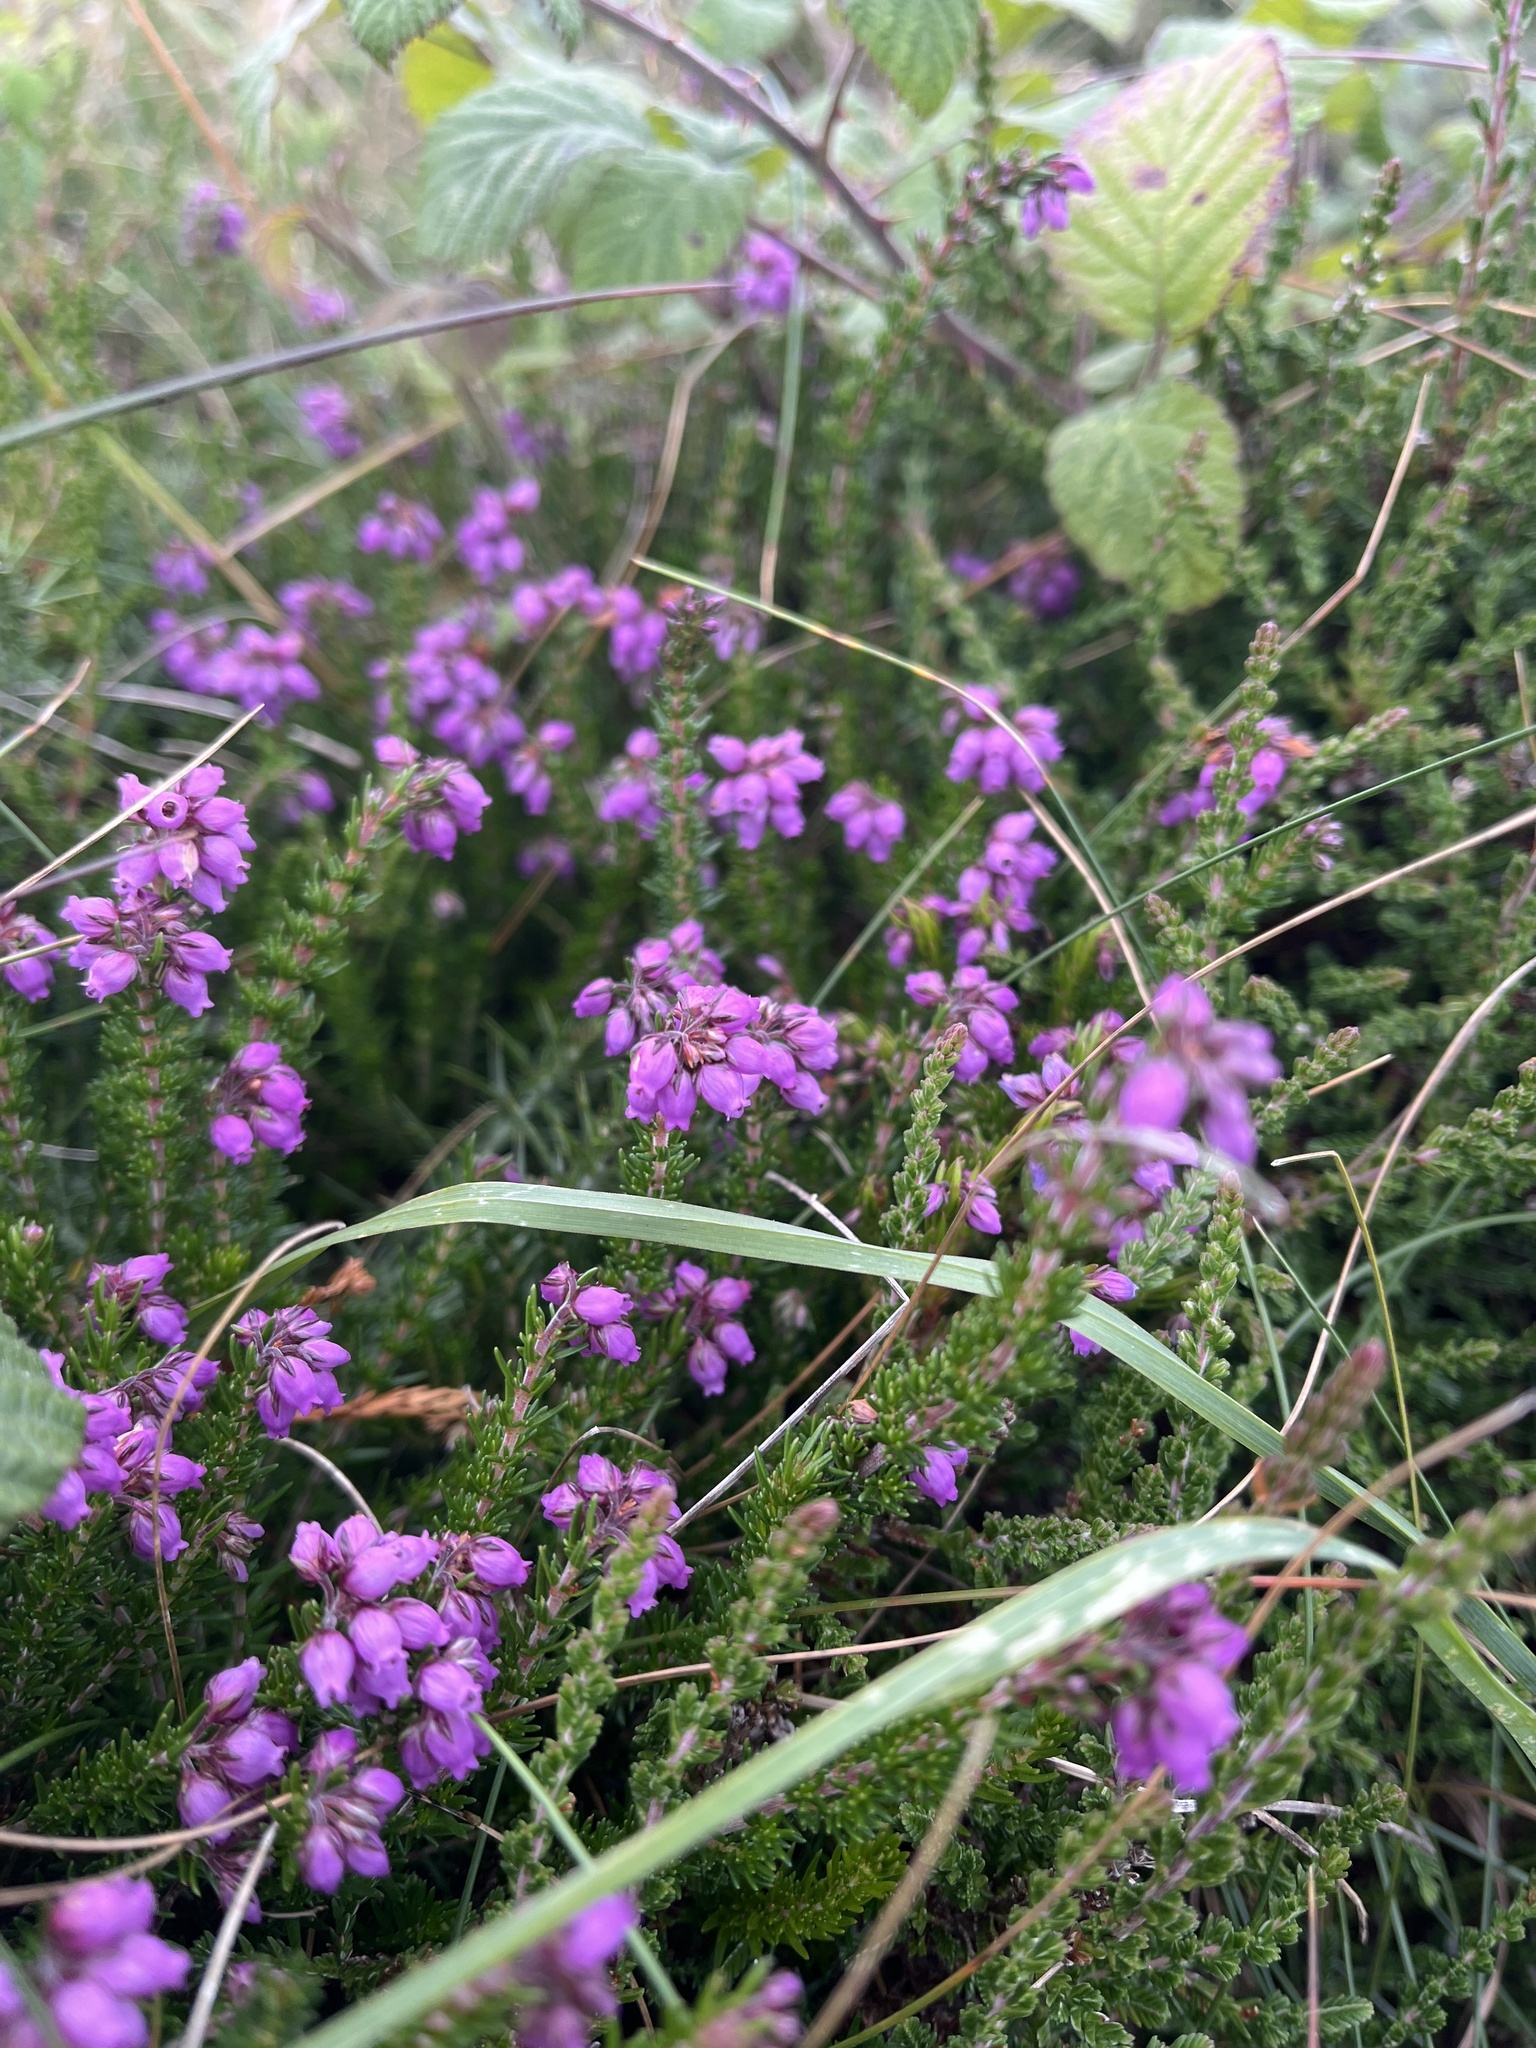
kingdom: Plantae
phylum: Tracheophyta
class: Magnoliopsida
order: Ericales
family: Ericaceae
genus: Erica
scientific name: Erica cinerea
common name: Bell heather
